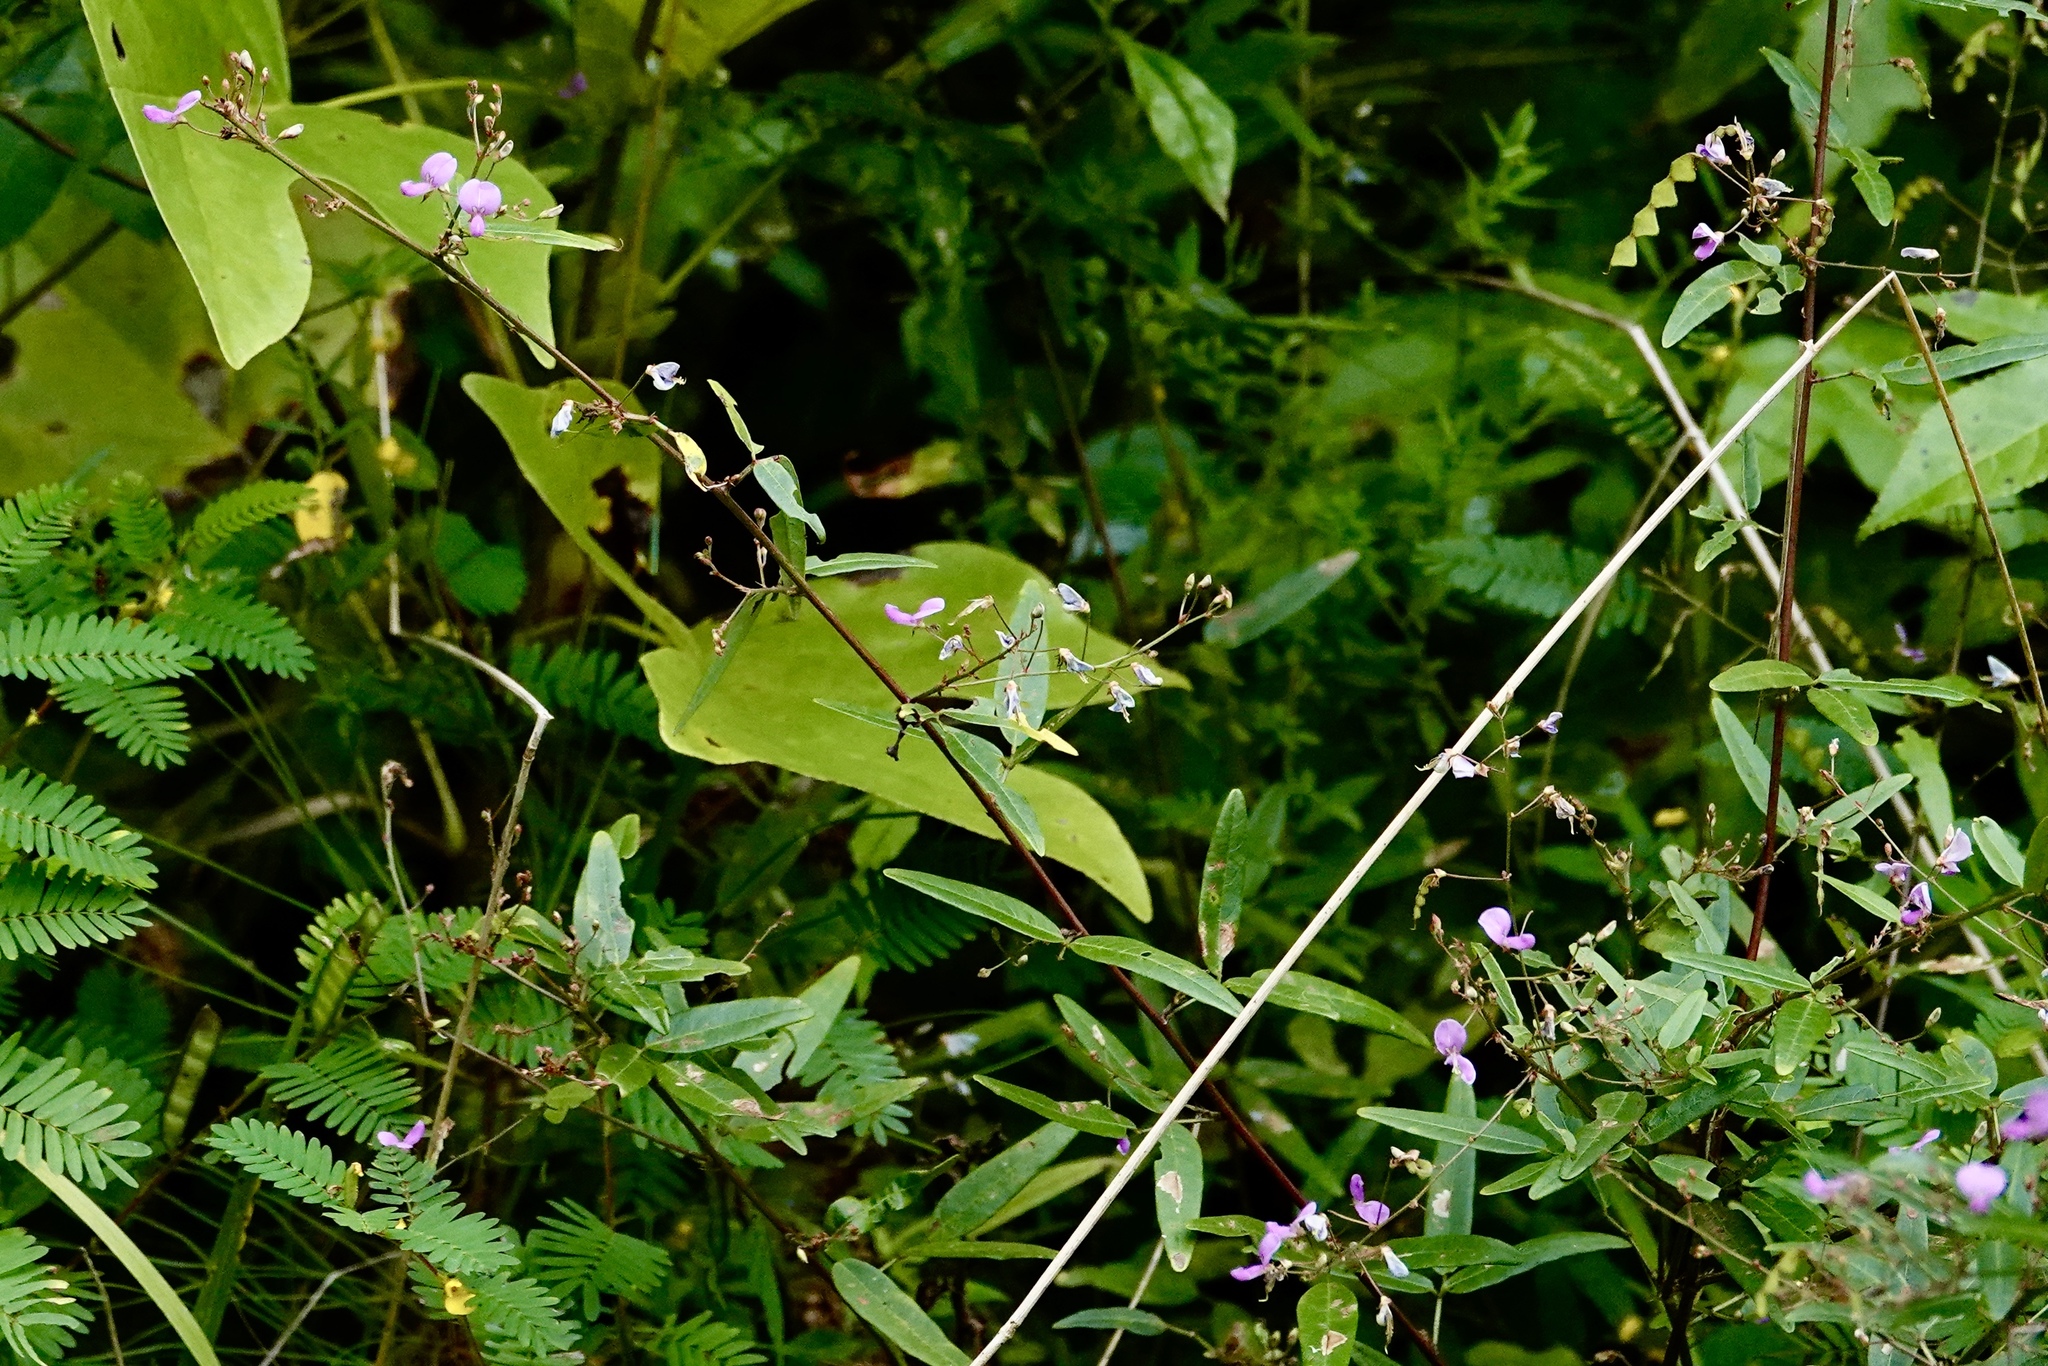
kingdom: Plantae
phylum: Tracheophyta
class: Magnoliopsida
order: Fabales
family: Fabaceae
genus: Desmodium
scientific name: Desmodium paniculatum
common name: Panicled tick-clover
